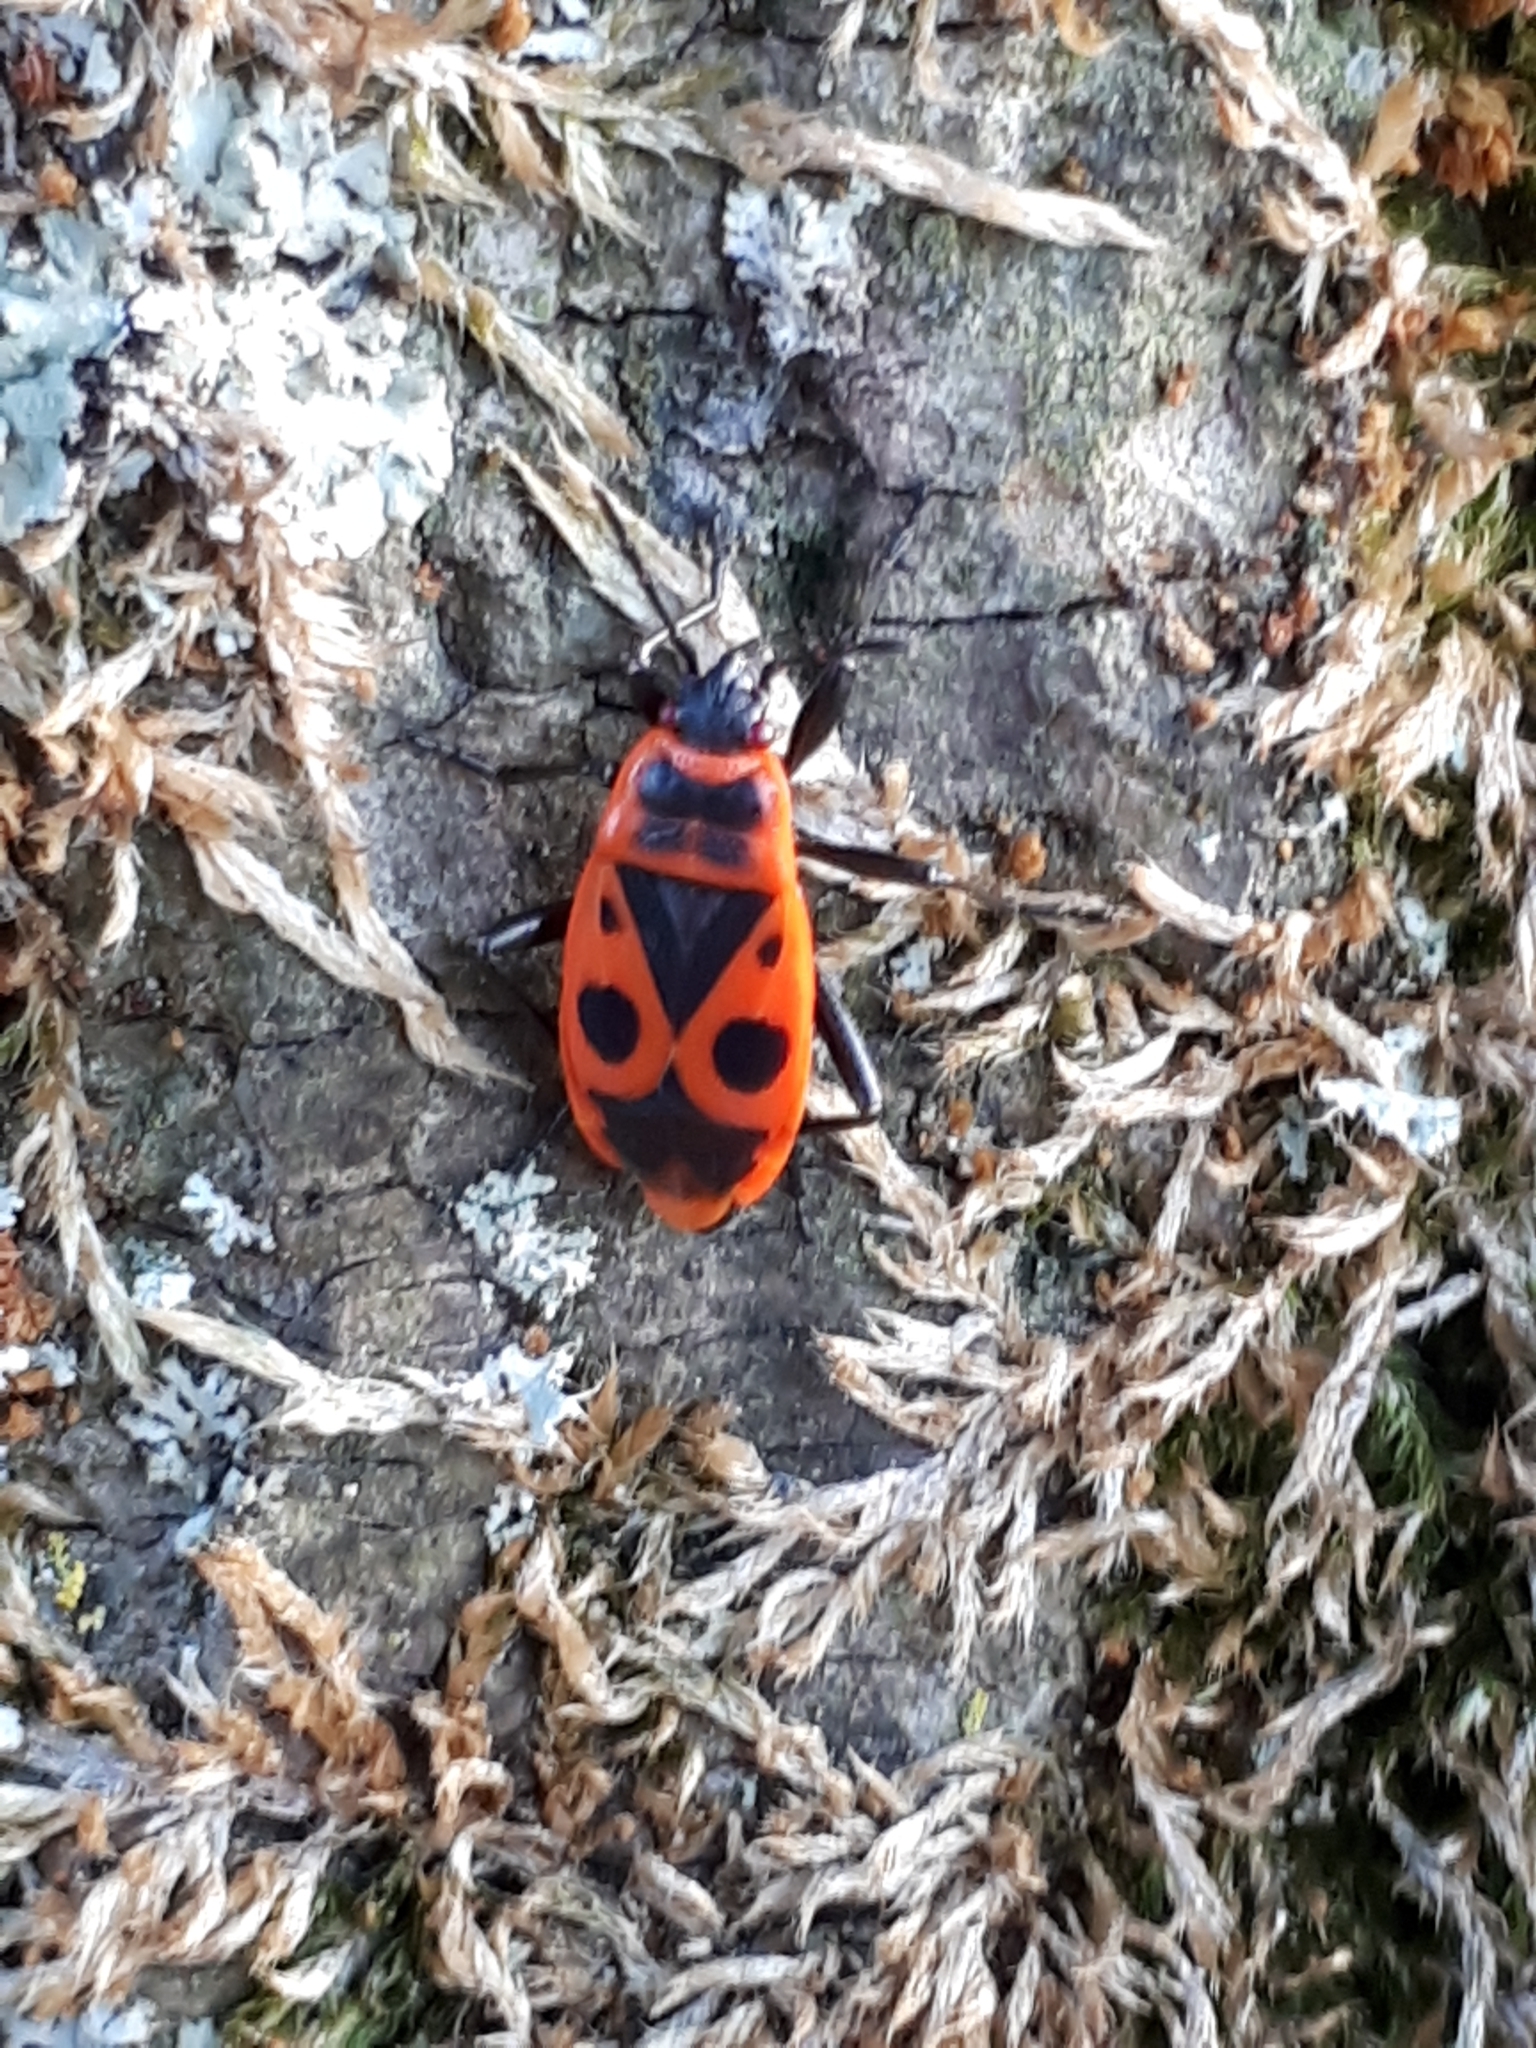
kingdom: Animalia
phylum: Arthropoda
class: Insecta
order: Hemiptera
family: Pyrrhocoridae
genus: Pyrrhocoris
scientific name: Pyrrhocoris apterus
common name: Firebug
